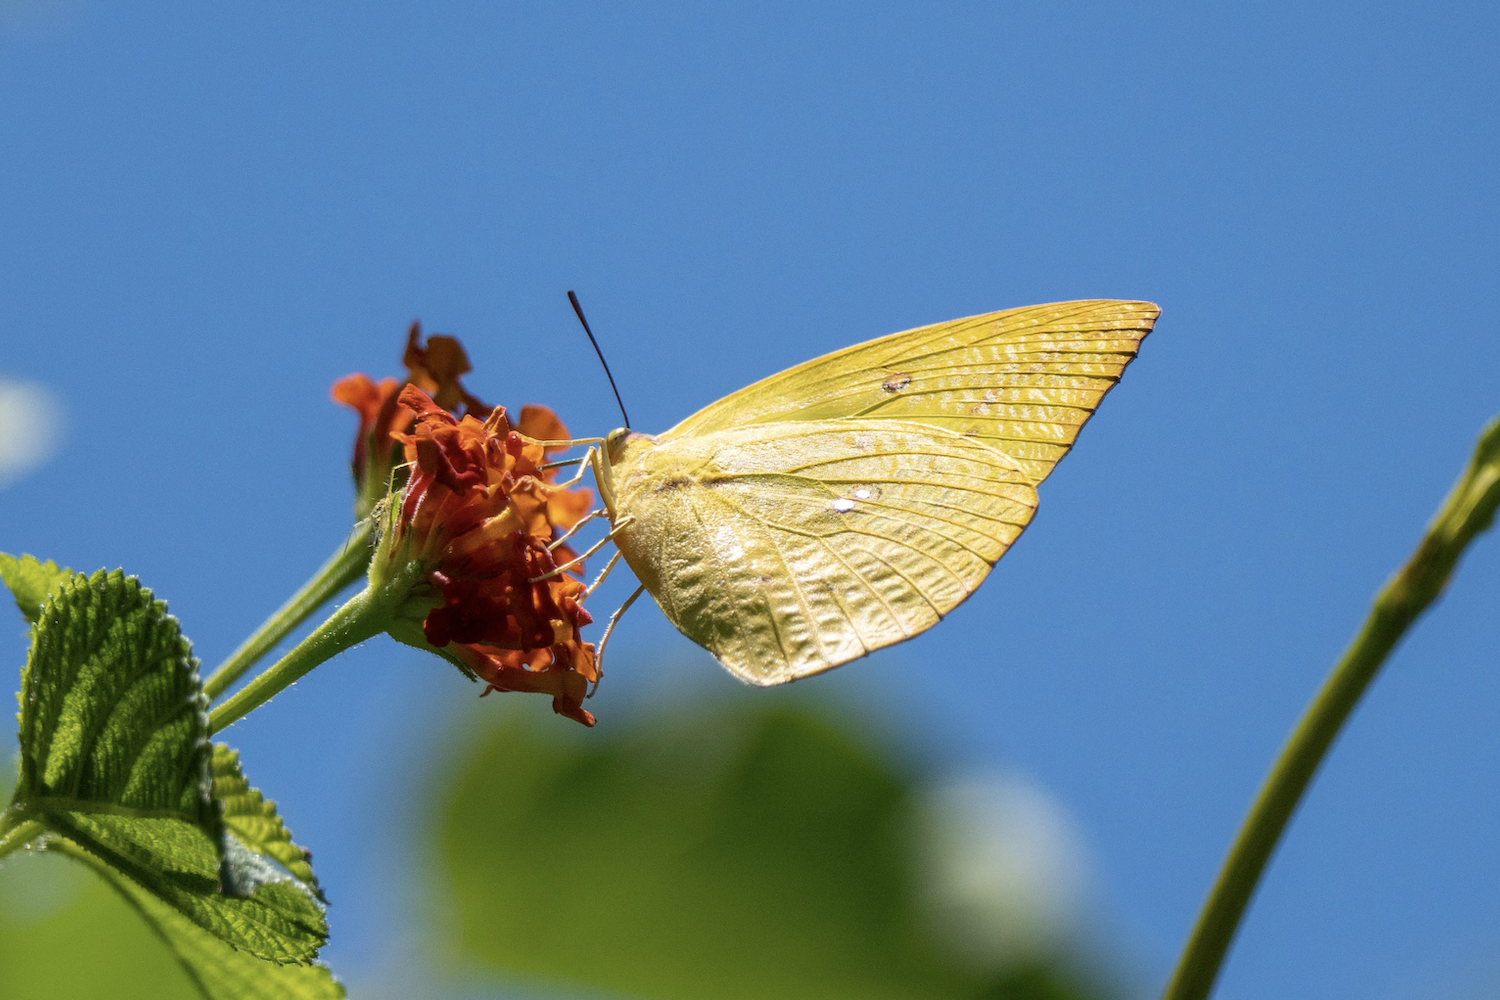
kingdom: Animalia
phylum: Arthropoda
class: Insecta
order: Lepidoptera
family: Pieridae
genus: Catopsilia
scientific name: Catopsilia pomona
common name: Common emigrant
